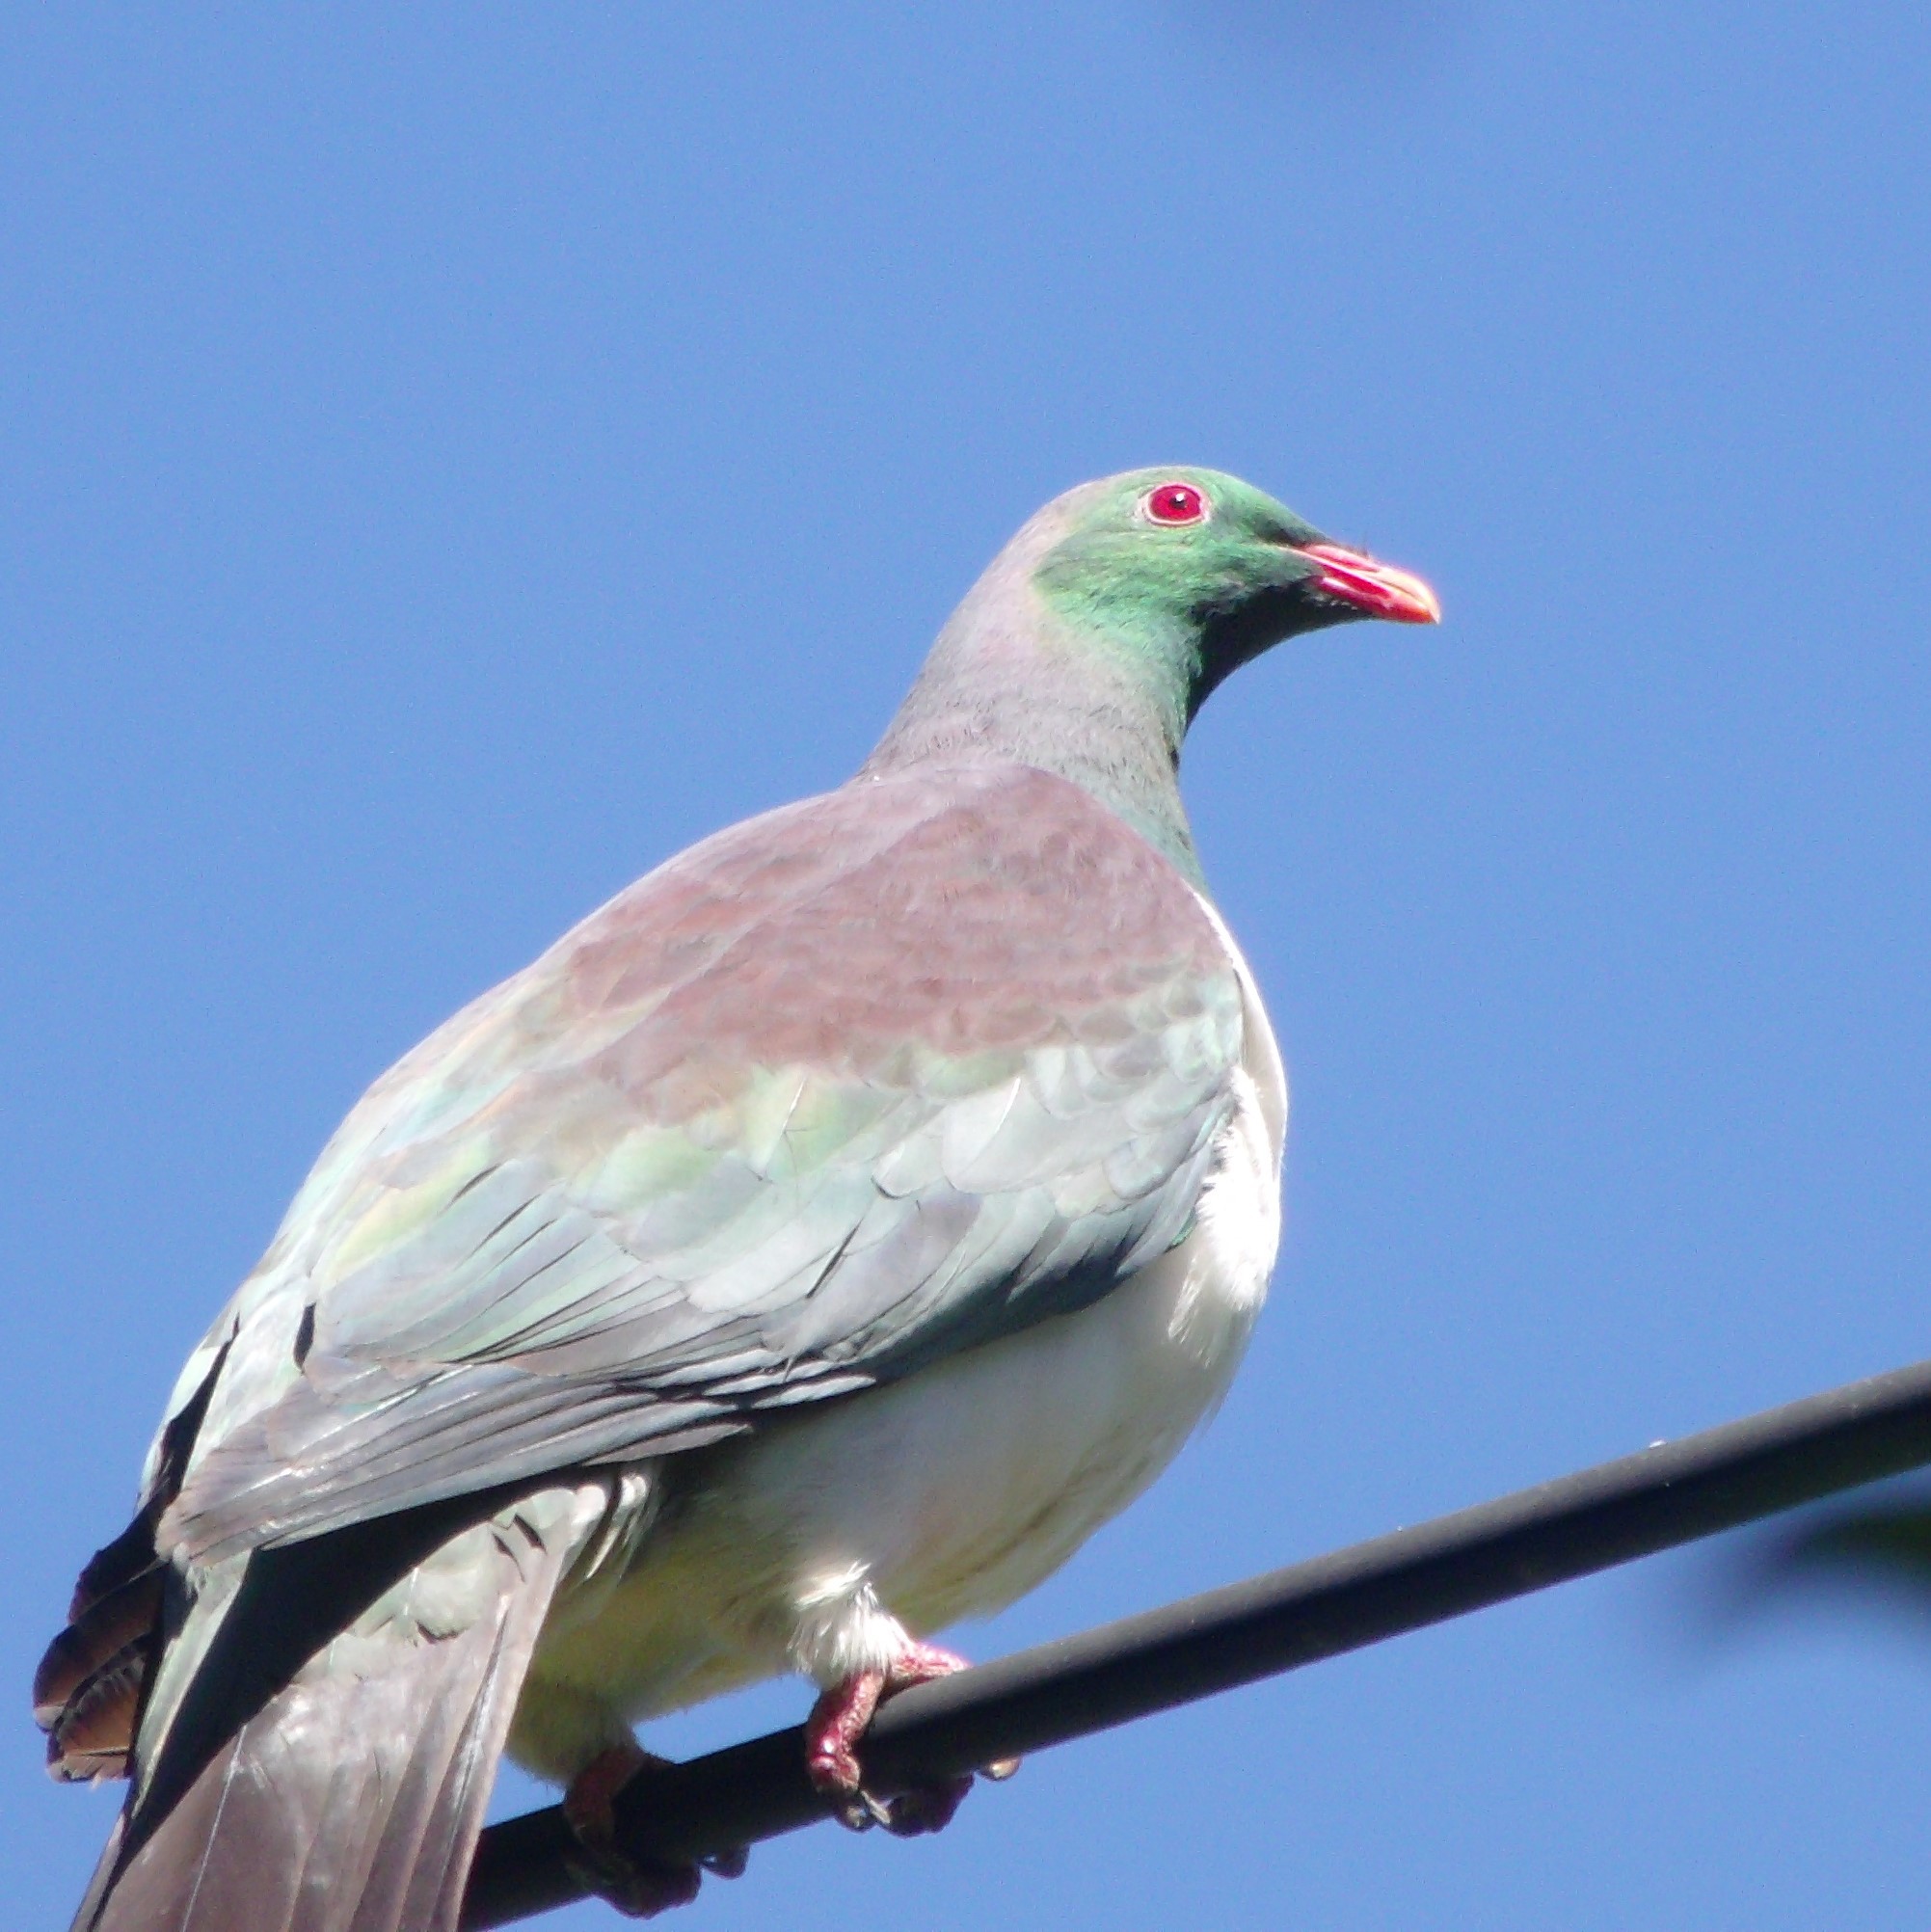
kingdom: Animalia
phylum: Chordata
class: Aves
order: Columbiformes
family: Columbidae
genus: Hemiphaga
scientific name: Hemiphaga novaeseelandiae
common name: New zealand pigeon
